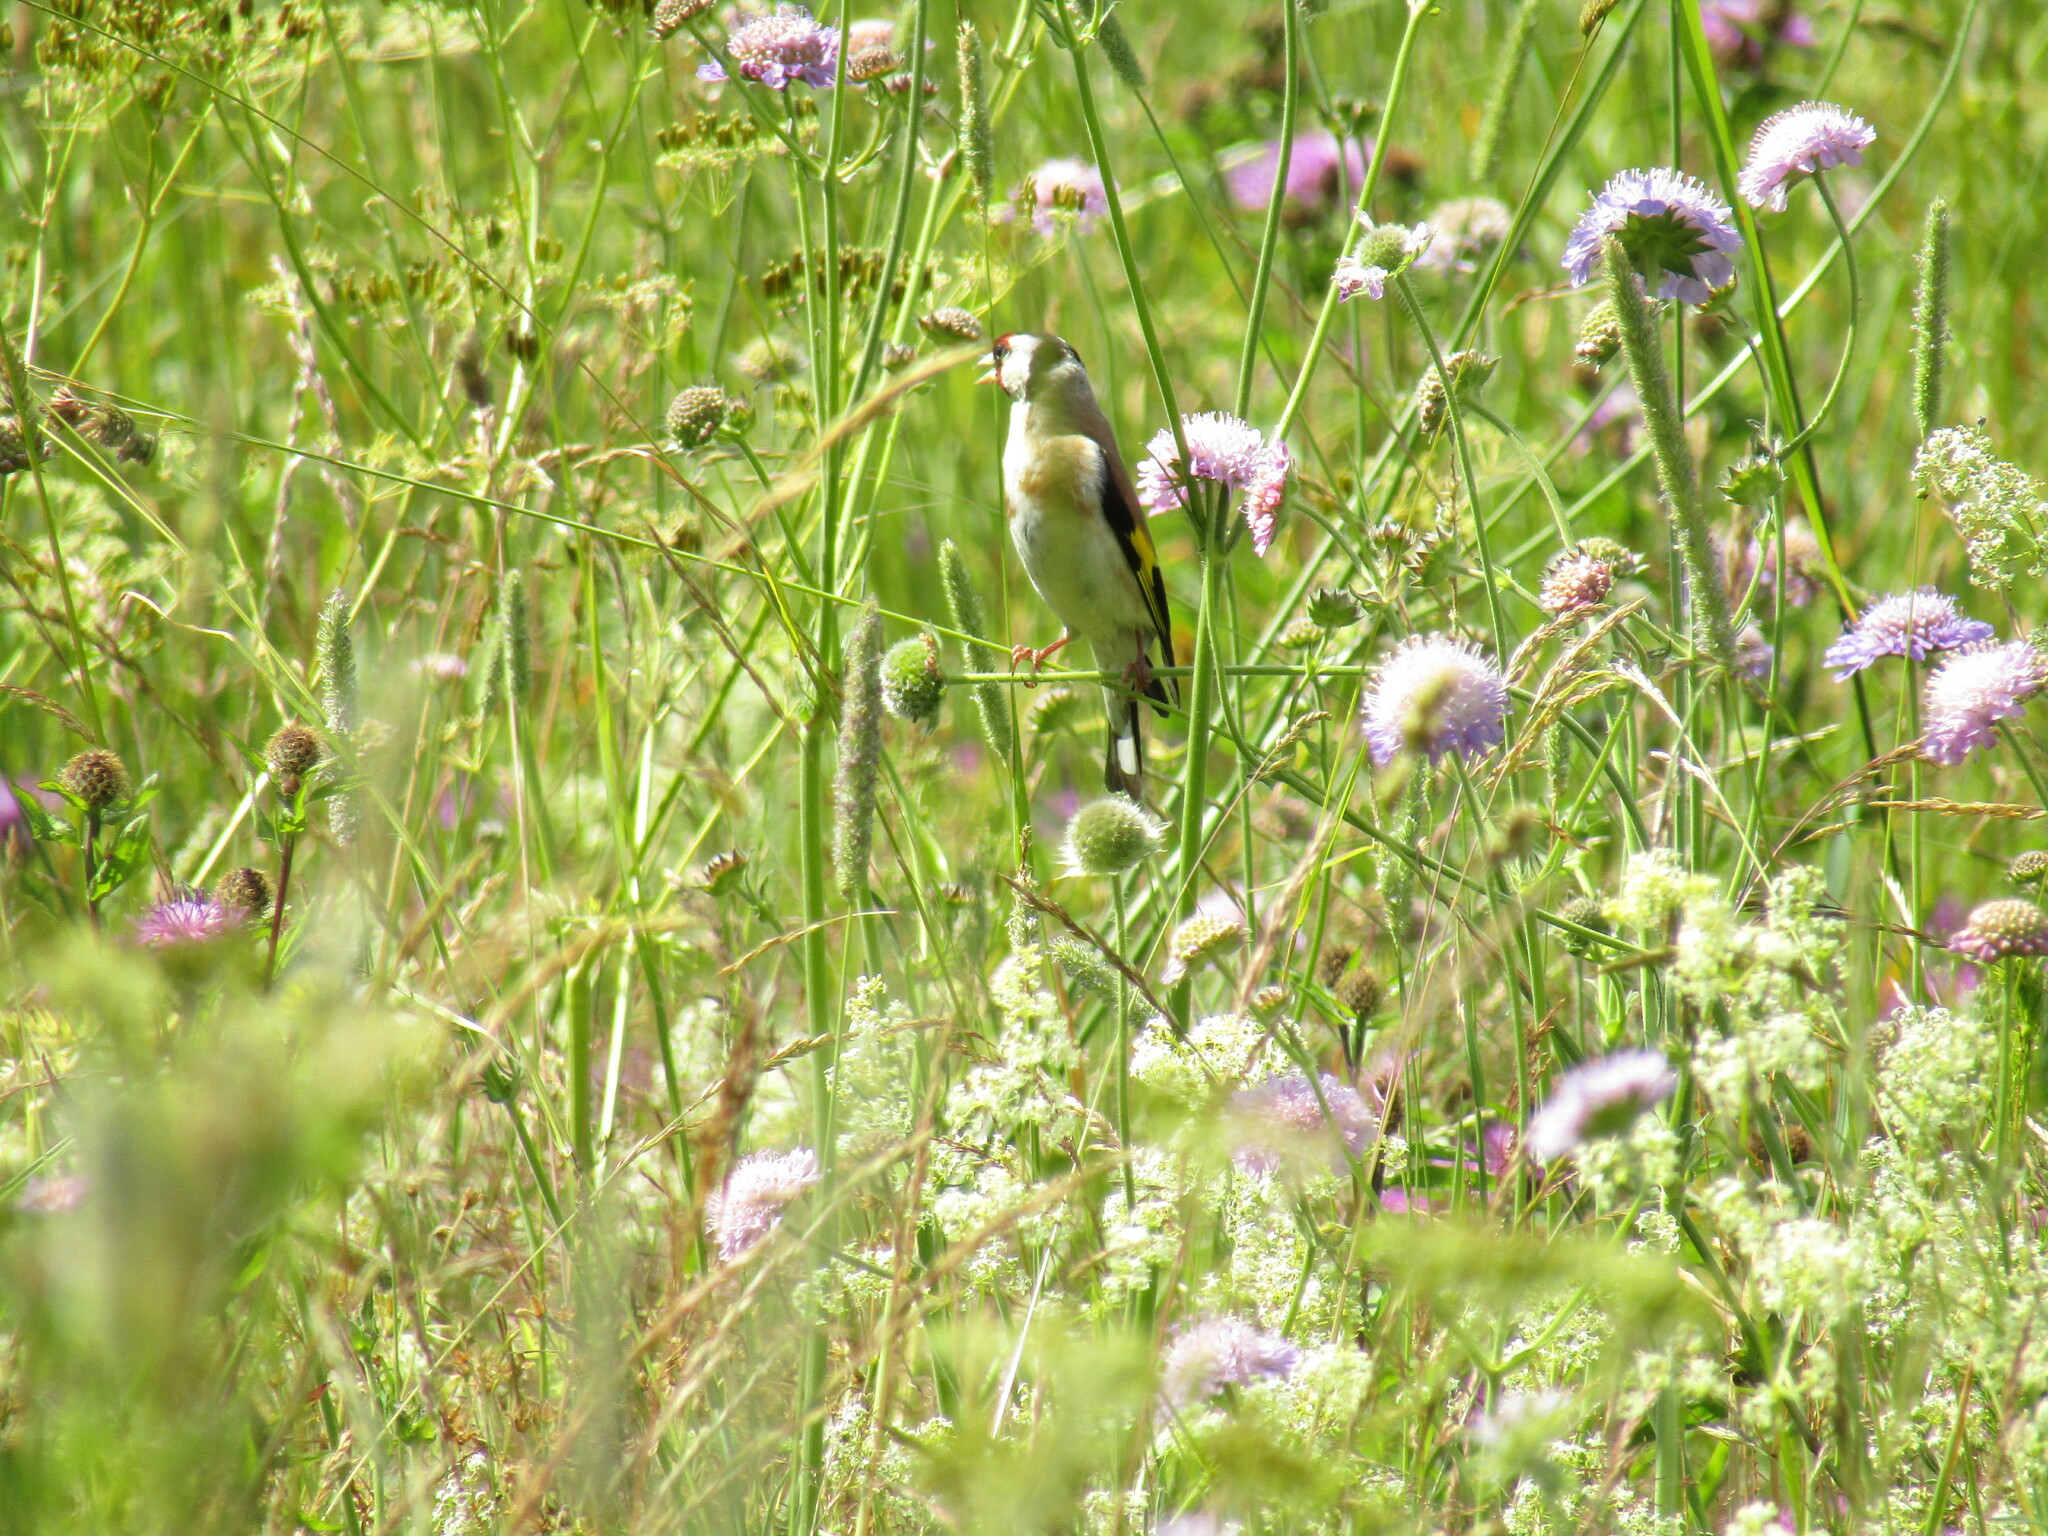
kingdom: Animalia
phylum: Chordata
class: Aves
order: Passeriformes
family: Fringillidae
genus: Carduelis
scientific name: Carduelis carduelis
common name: European goldfinch
